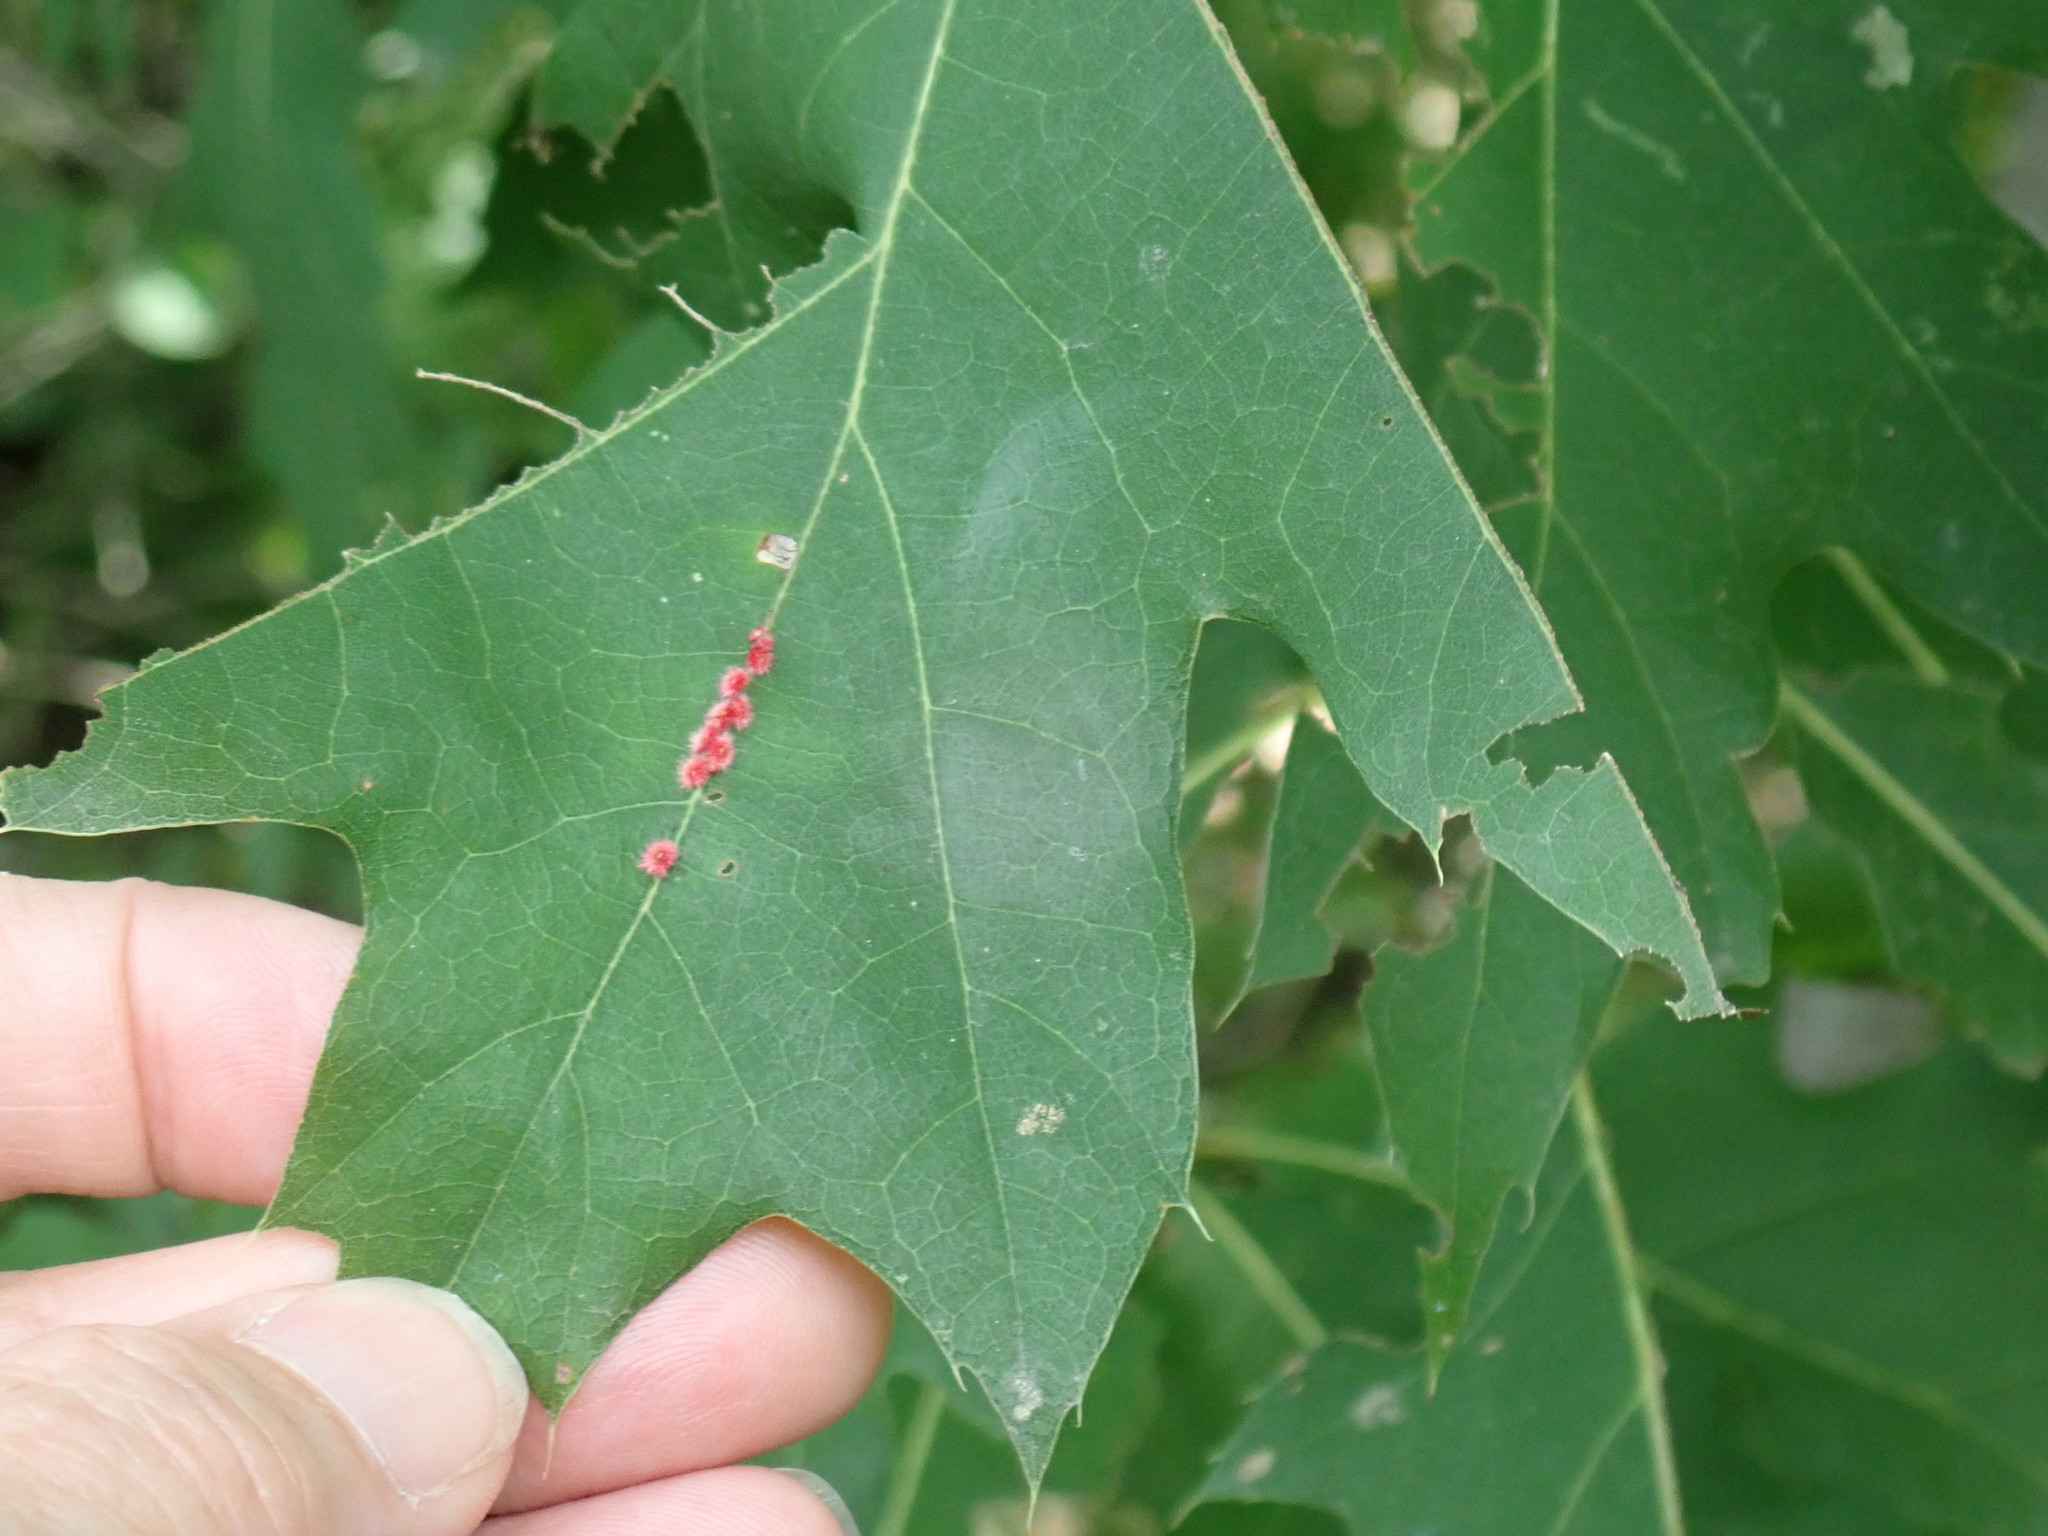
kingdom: Animalia
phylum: Arthropoda
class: Insecta
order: Hymenoptera
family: Cynipidae
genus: Callirhytis
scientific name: Callirhytis
